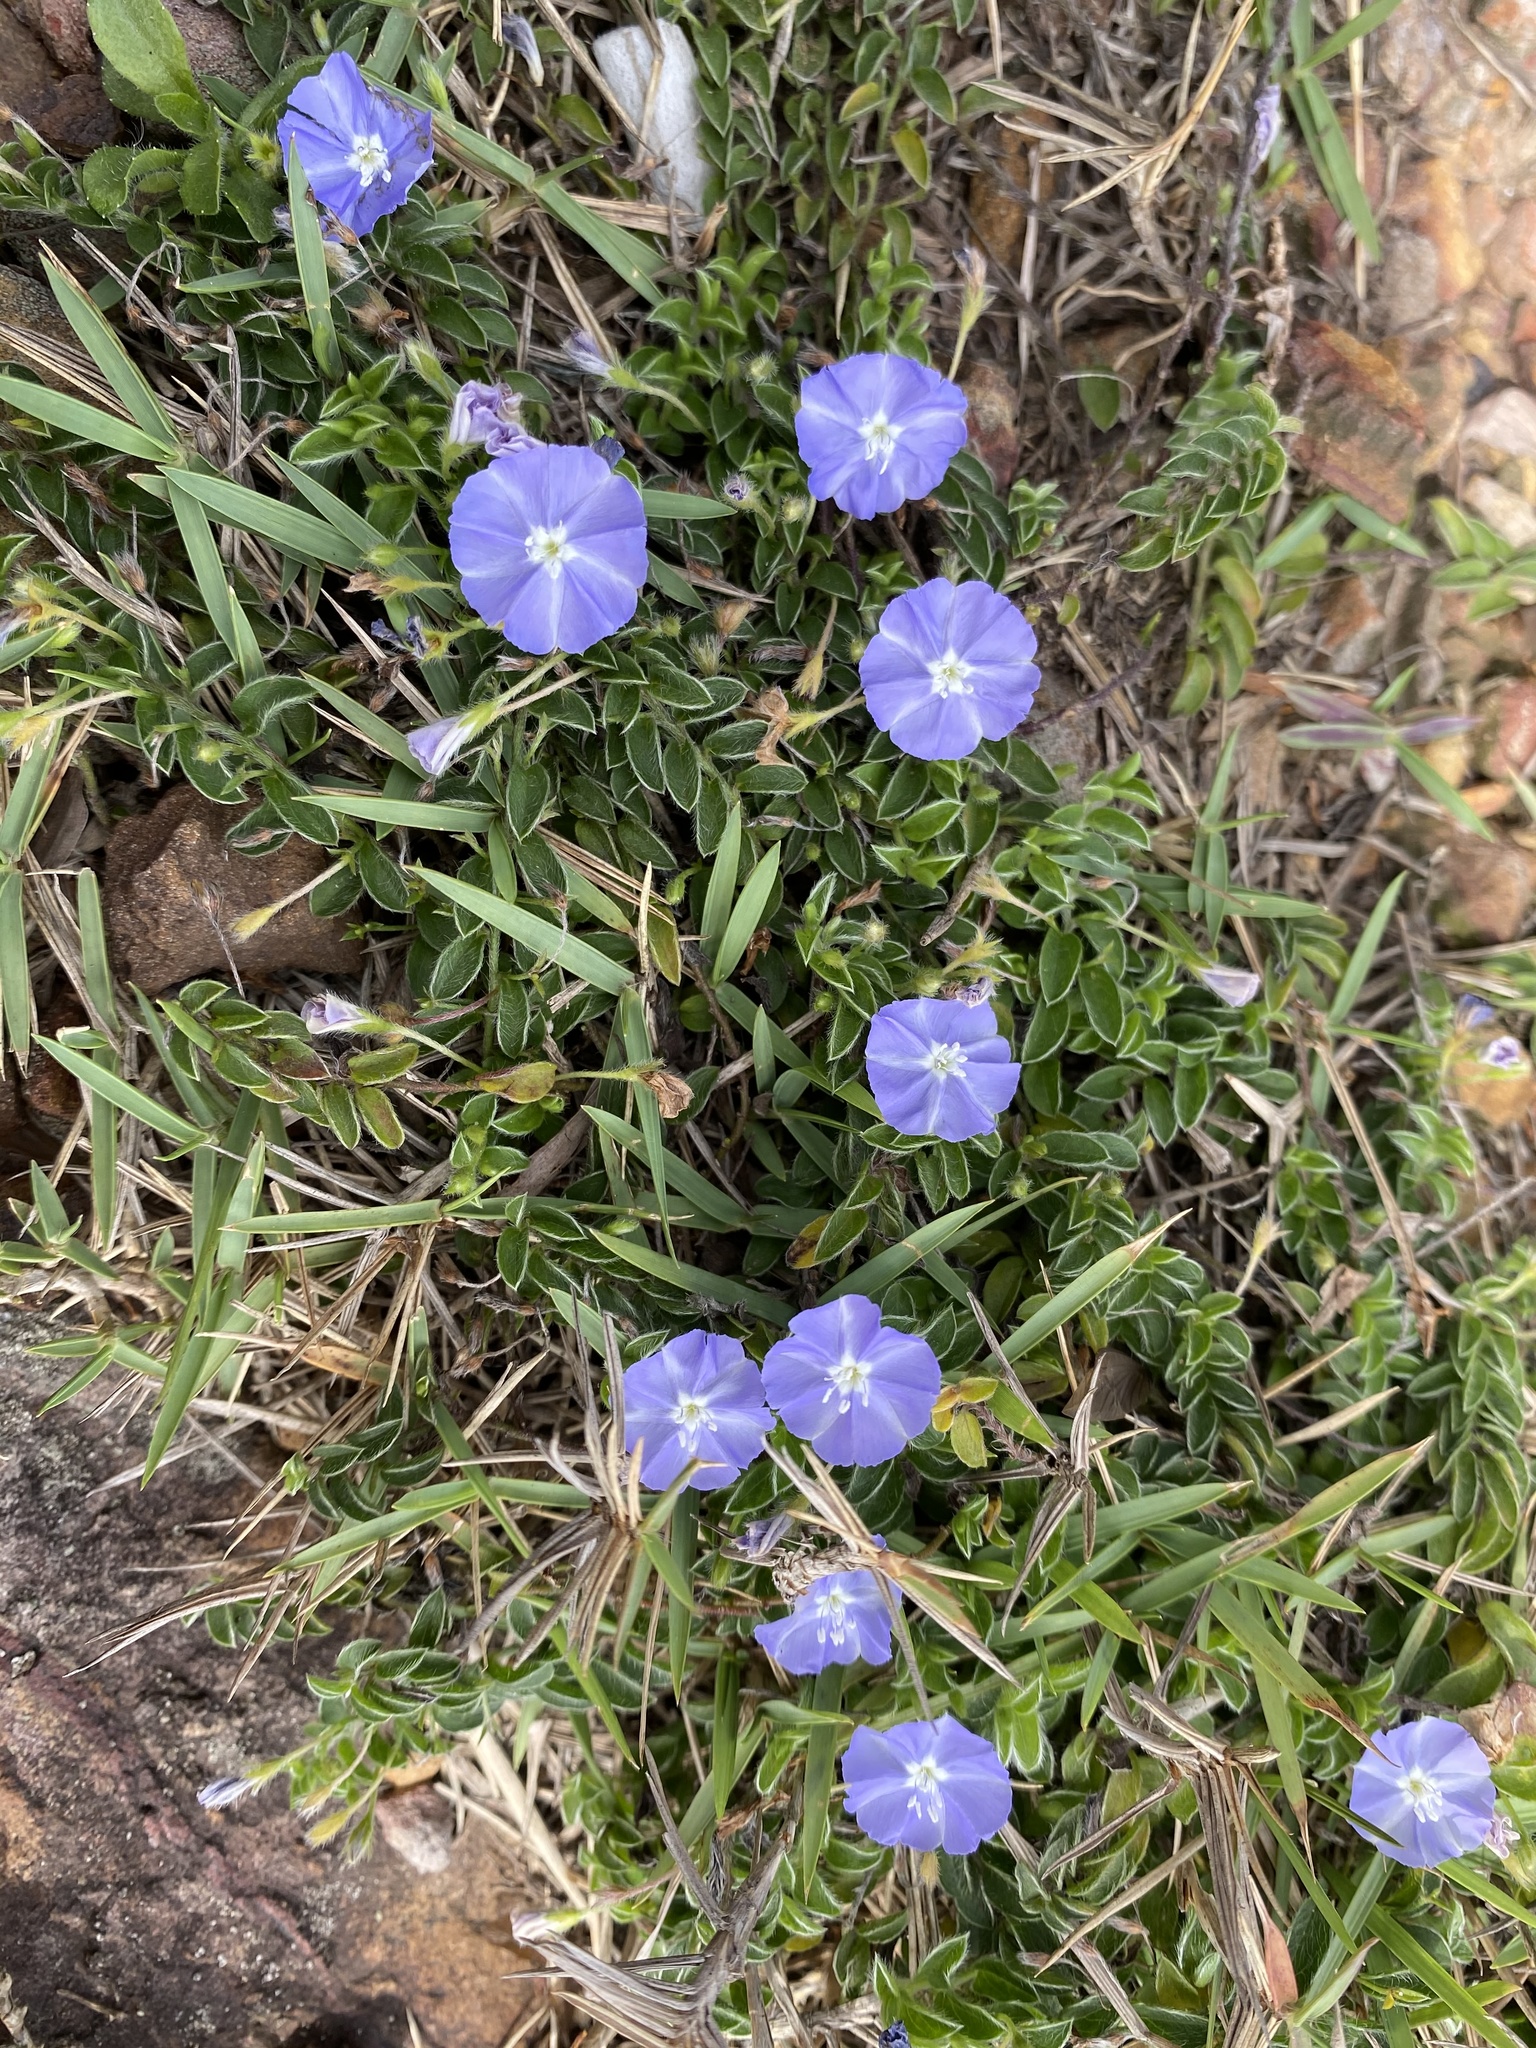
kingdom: Plantae
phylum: Tracheophyta
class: Magnoliopsida
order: Solanales
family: Convolvulaceae
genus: Evolvulus
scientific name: Evolvulus alsinoides
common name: Slender dwarf morning-glory
